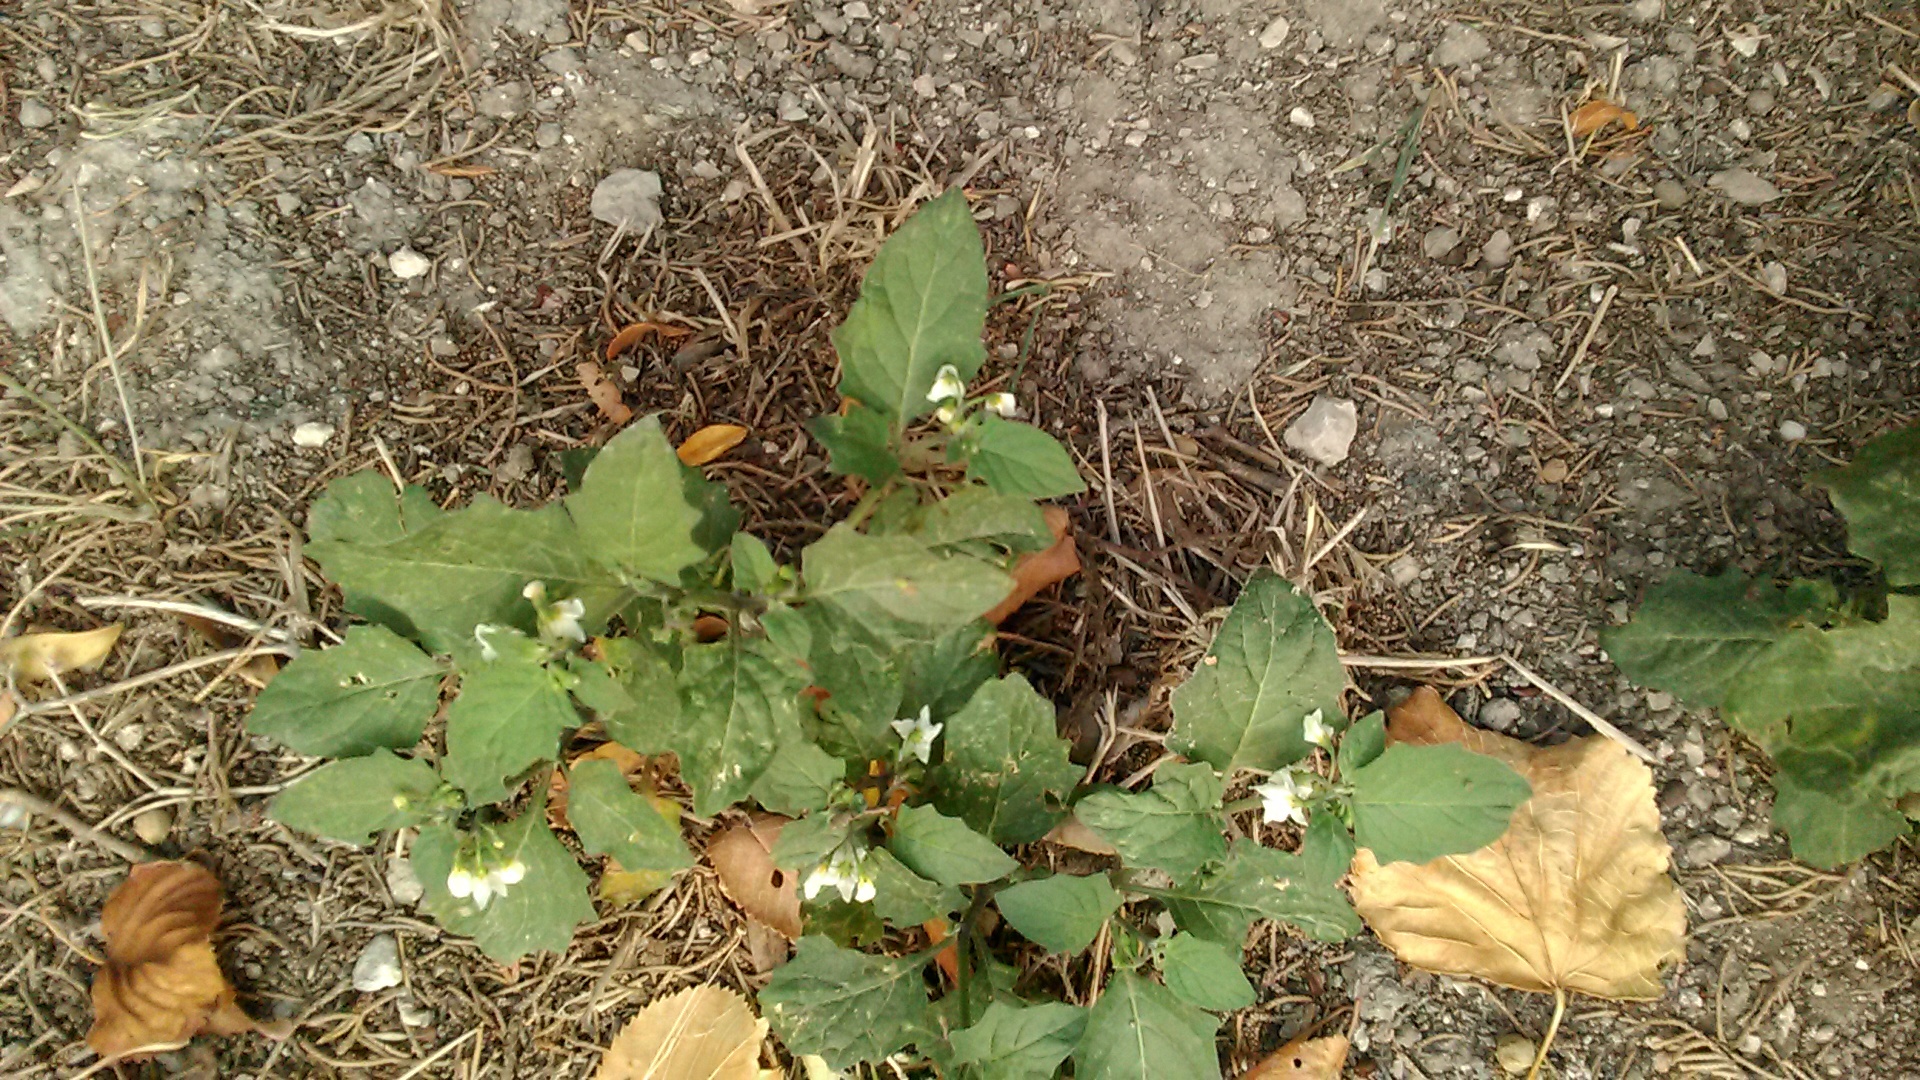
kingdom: Plantae
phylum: Tracheophyta
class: Magnoliopsida
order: Solanales
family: Solanaceae
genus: Solanum
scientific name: Solanum nigrum
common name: Black nightshade
